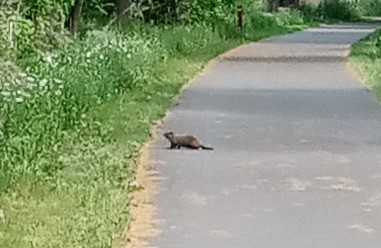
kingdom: Animalia
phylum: Chordata
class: Mammalia
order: Rodentia
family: Sciuridae
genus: Marmota
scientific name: Marmota monax
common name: Groundhog
